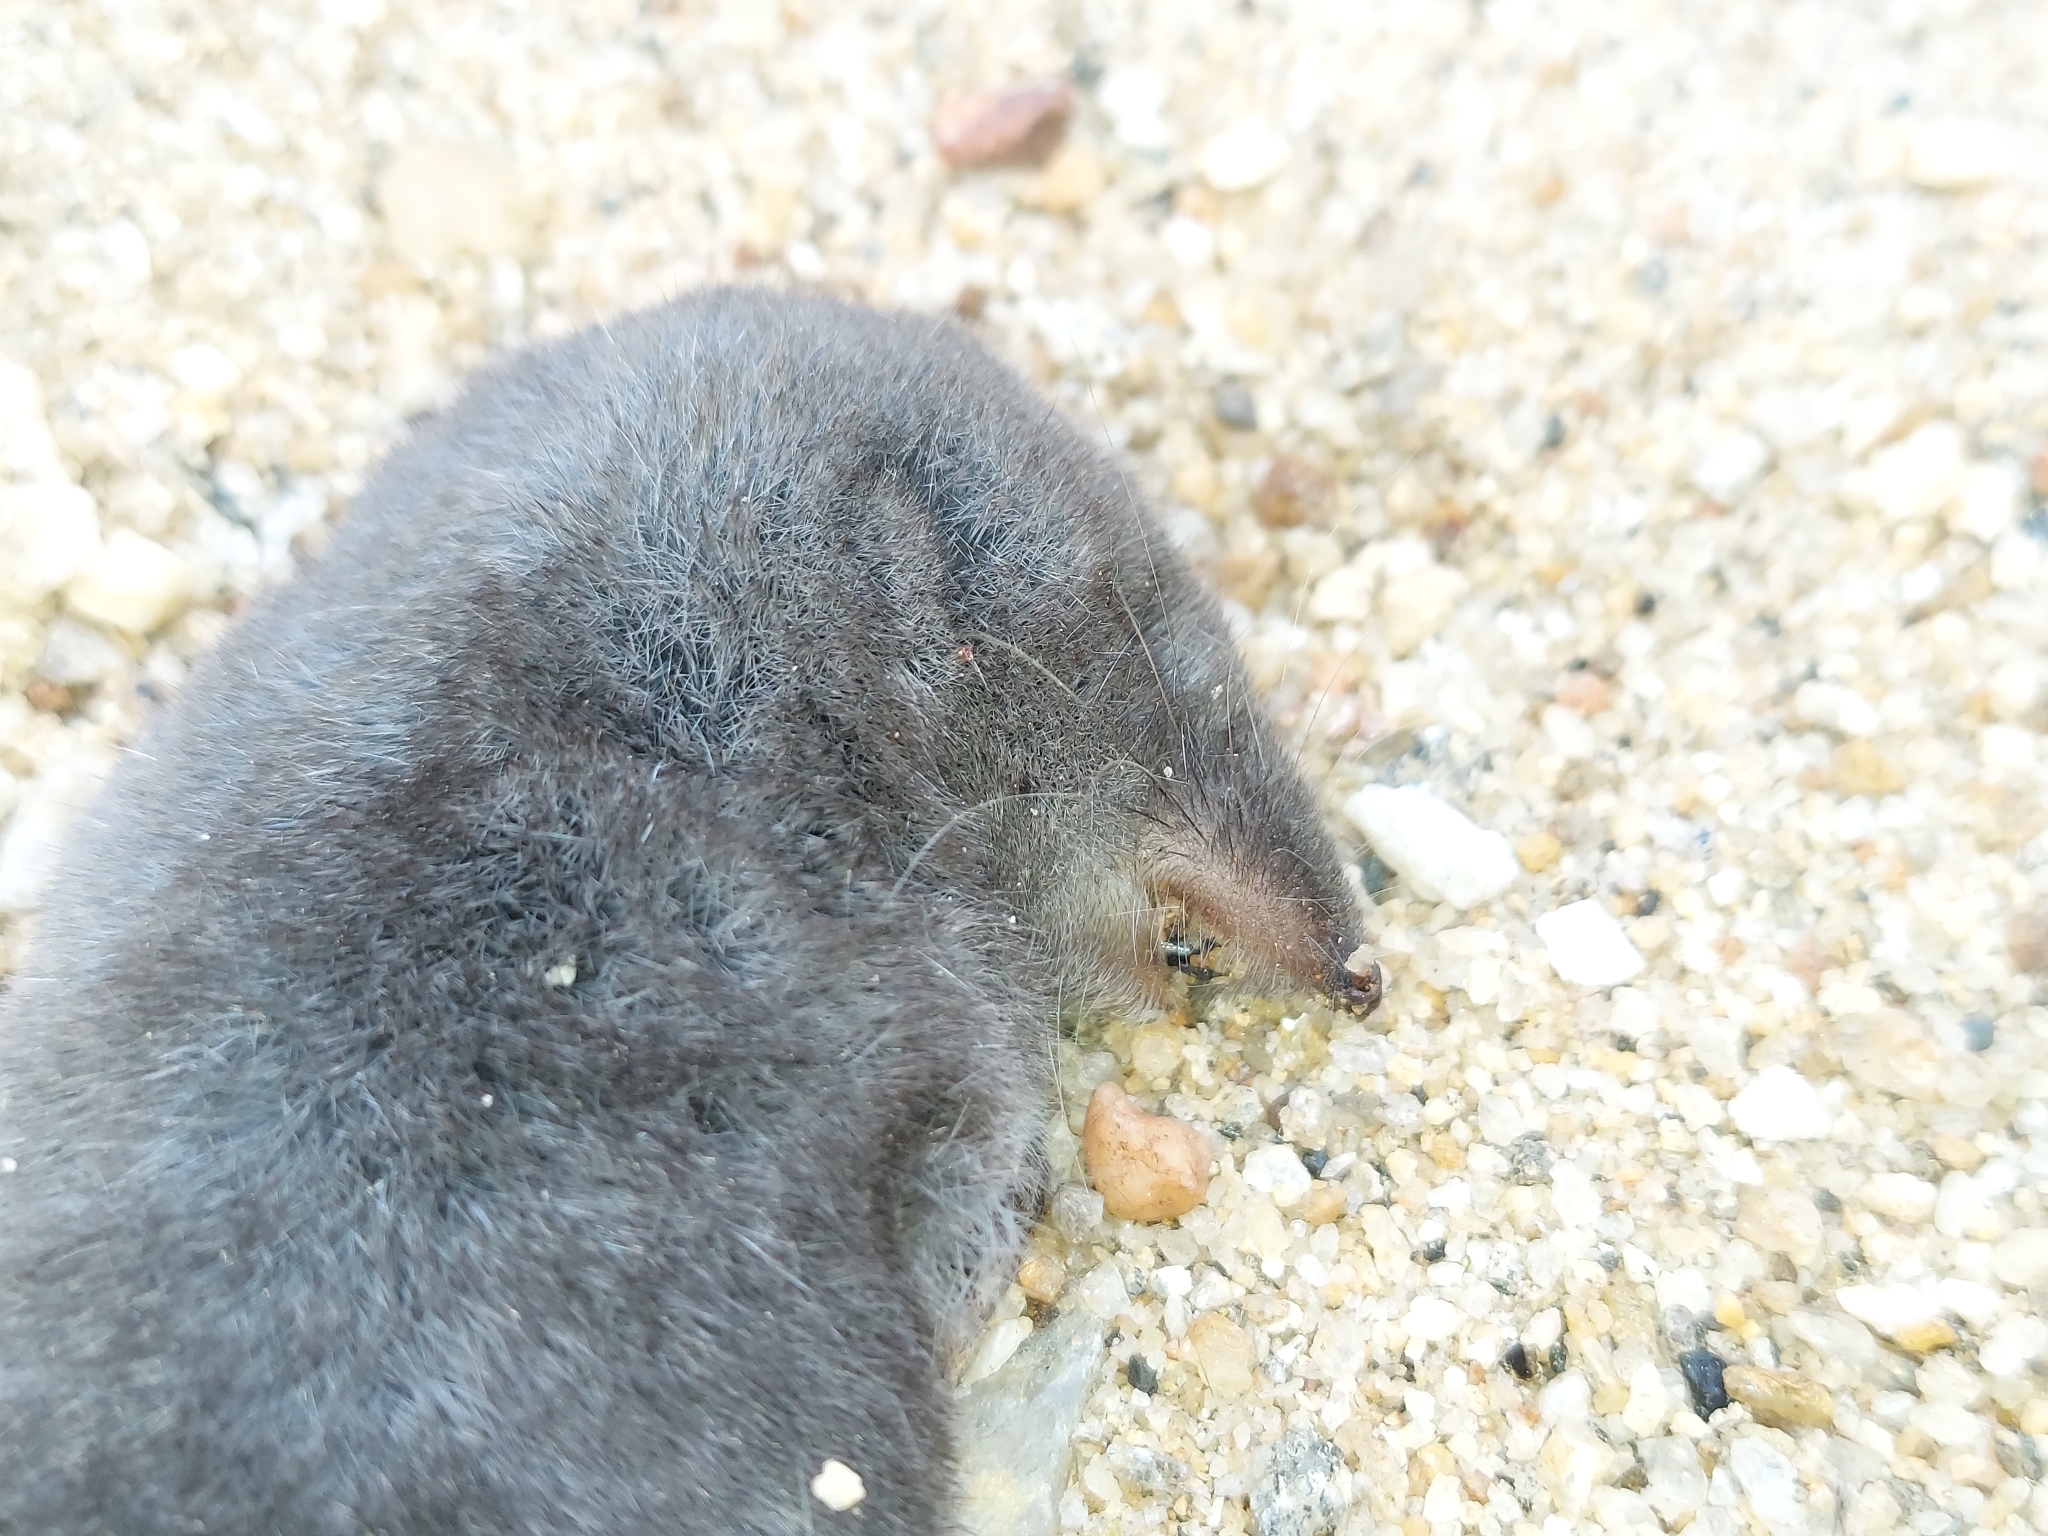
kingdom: Animalia
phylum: Chordata
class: Mammalia
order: Soricomorpha
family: Soricidae
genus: Blarina
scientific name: Blarina brevicauda
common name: Northern short-tailed shrew
